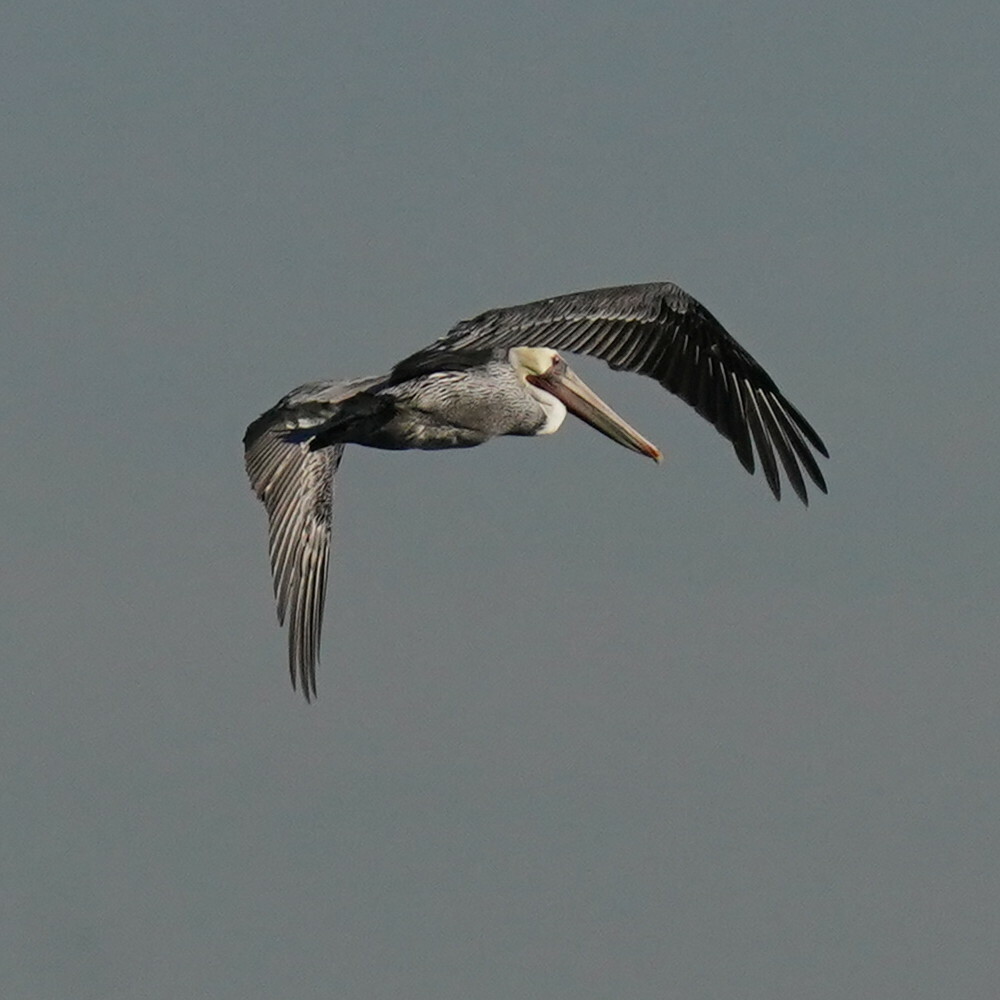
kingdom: Animalia
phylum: Chordata
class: Aves
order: Pelecaniformes
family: Pelecanidae
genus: Pelecanus
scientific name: Pelecanus occidentalis
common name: Brown pelican
